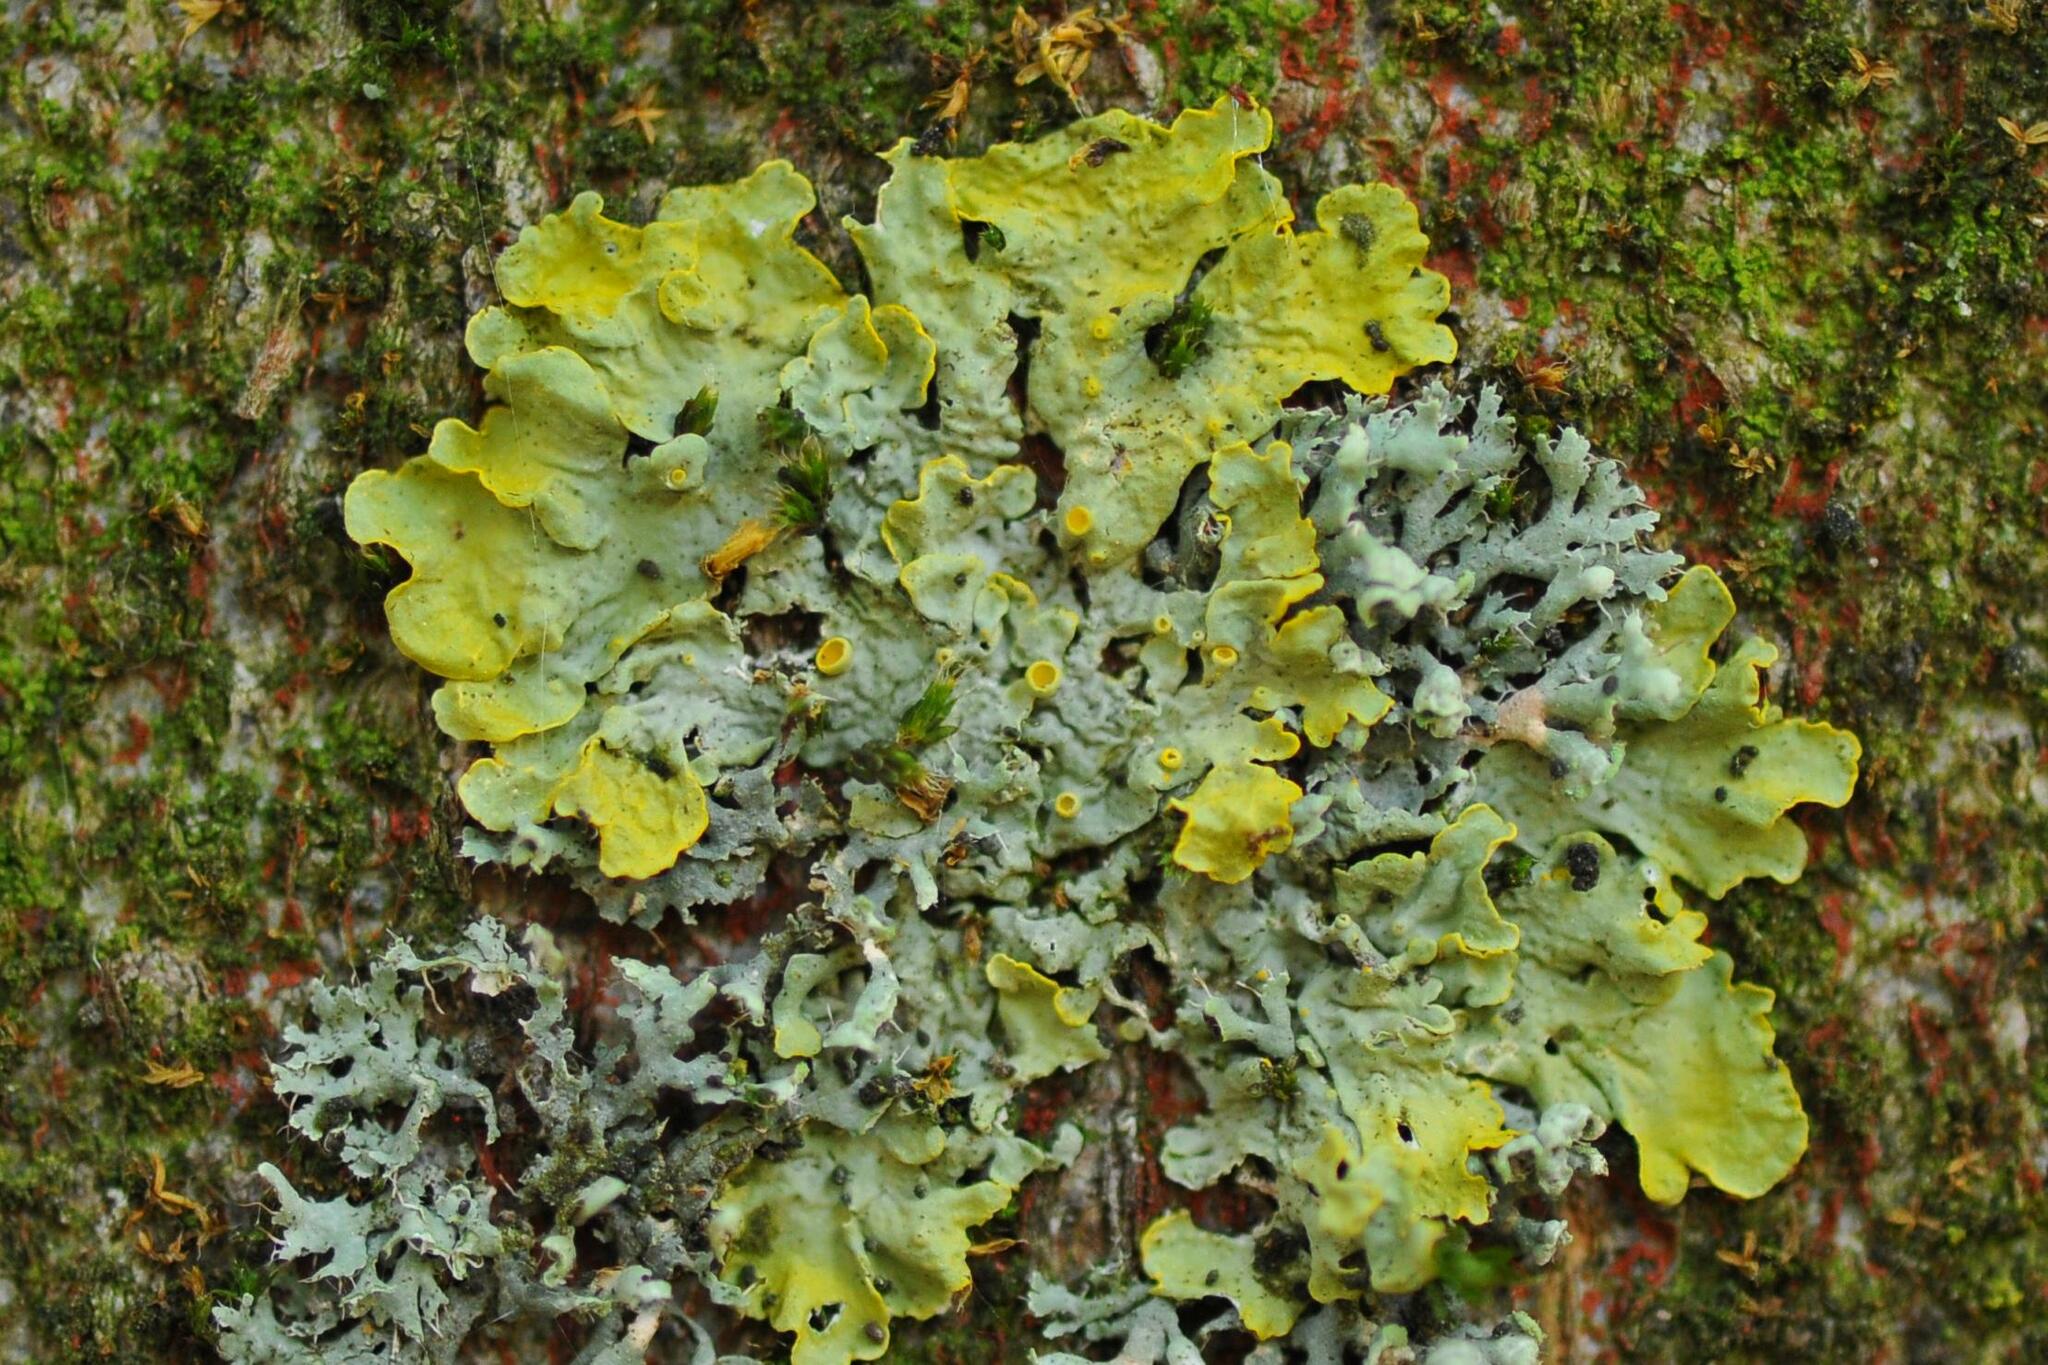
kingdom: Fungi
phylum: Ascomycota
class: Lecanoromycetes
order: Teloschistales
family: Teloschistaceae
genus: Xanthoria
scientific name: Xanthoria parietina
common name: Common orange lichen
